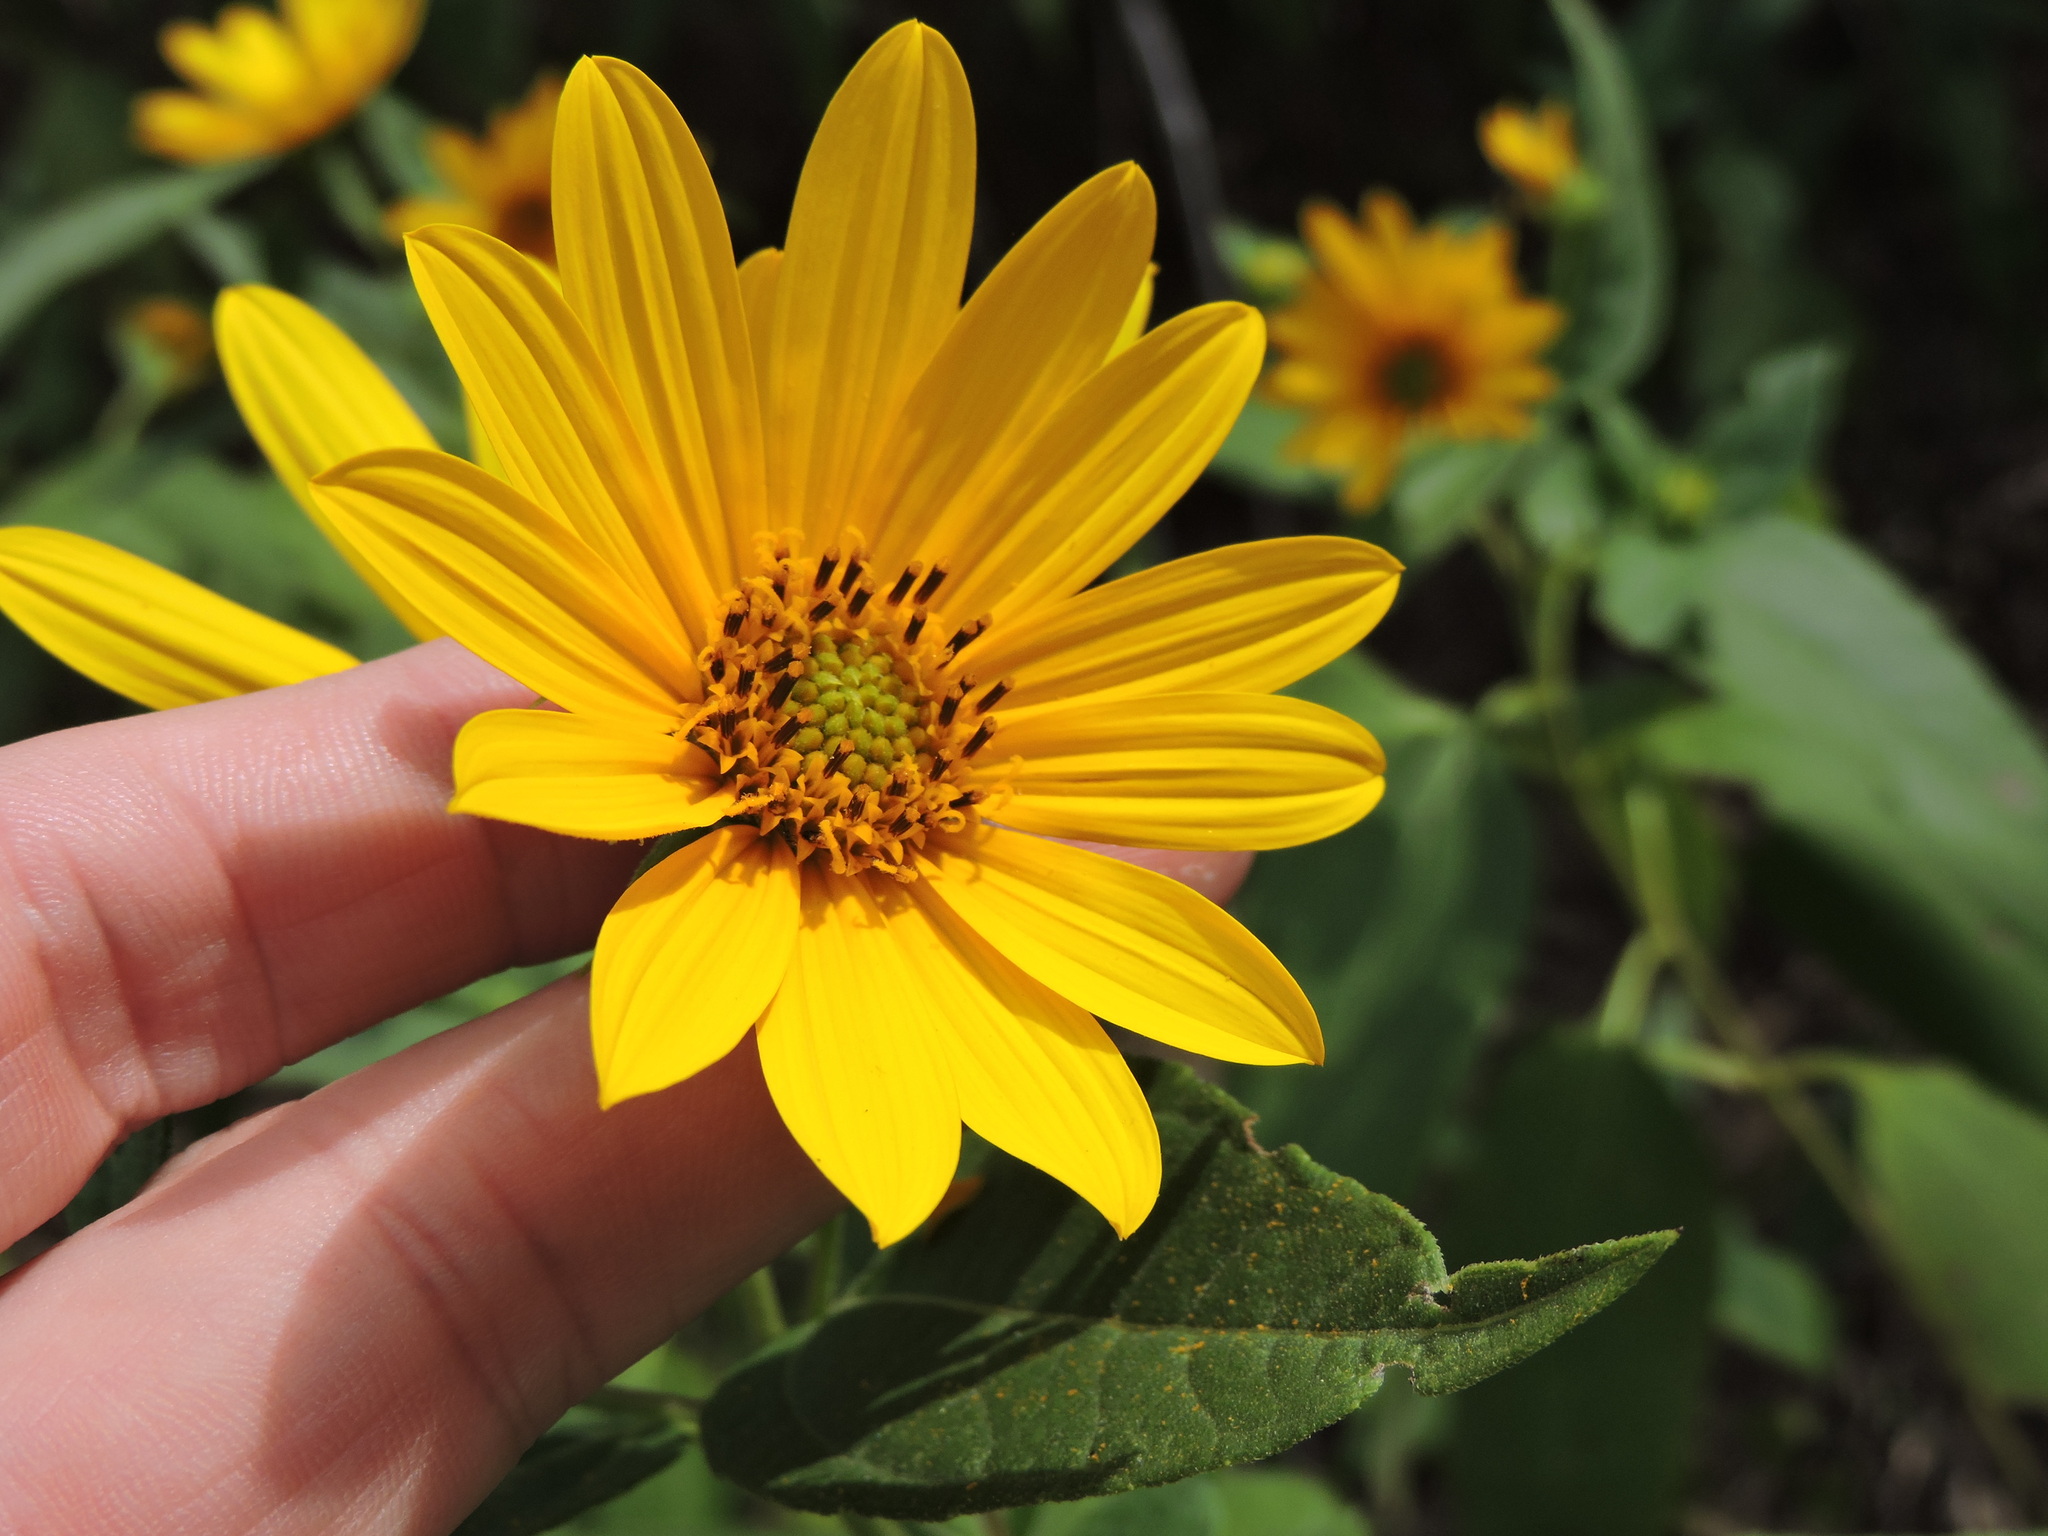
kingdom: Plantae
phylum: Tracheophyta
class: Magnoliopsida
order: Asterales
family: Asteraceae
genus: Helianthus
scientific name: Helianthus hirsutus
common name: Hairy sunflower
